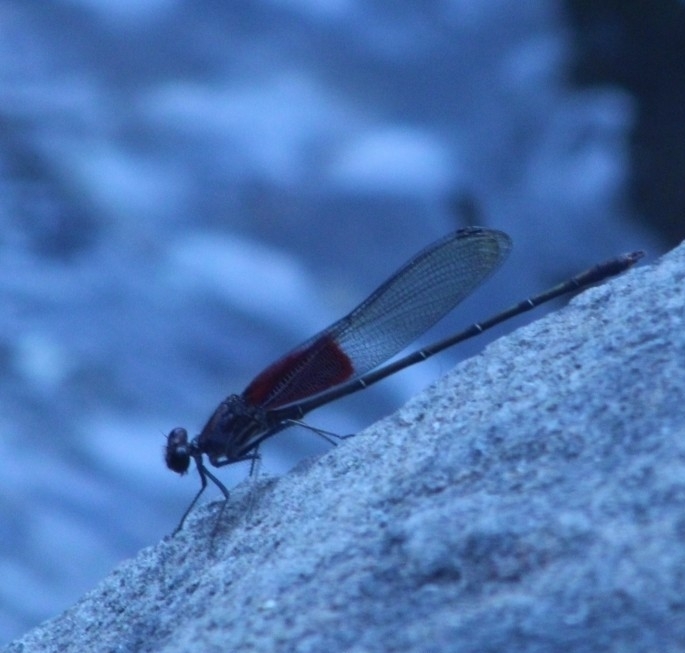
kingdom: Animalia
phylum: Arthropoda
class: Insecta
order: Odonata
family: Calopterygidae
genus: Hetaerina
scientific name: Hetaerina americana
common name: American rubyspot
